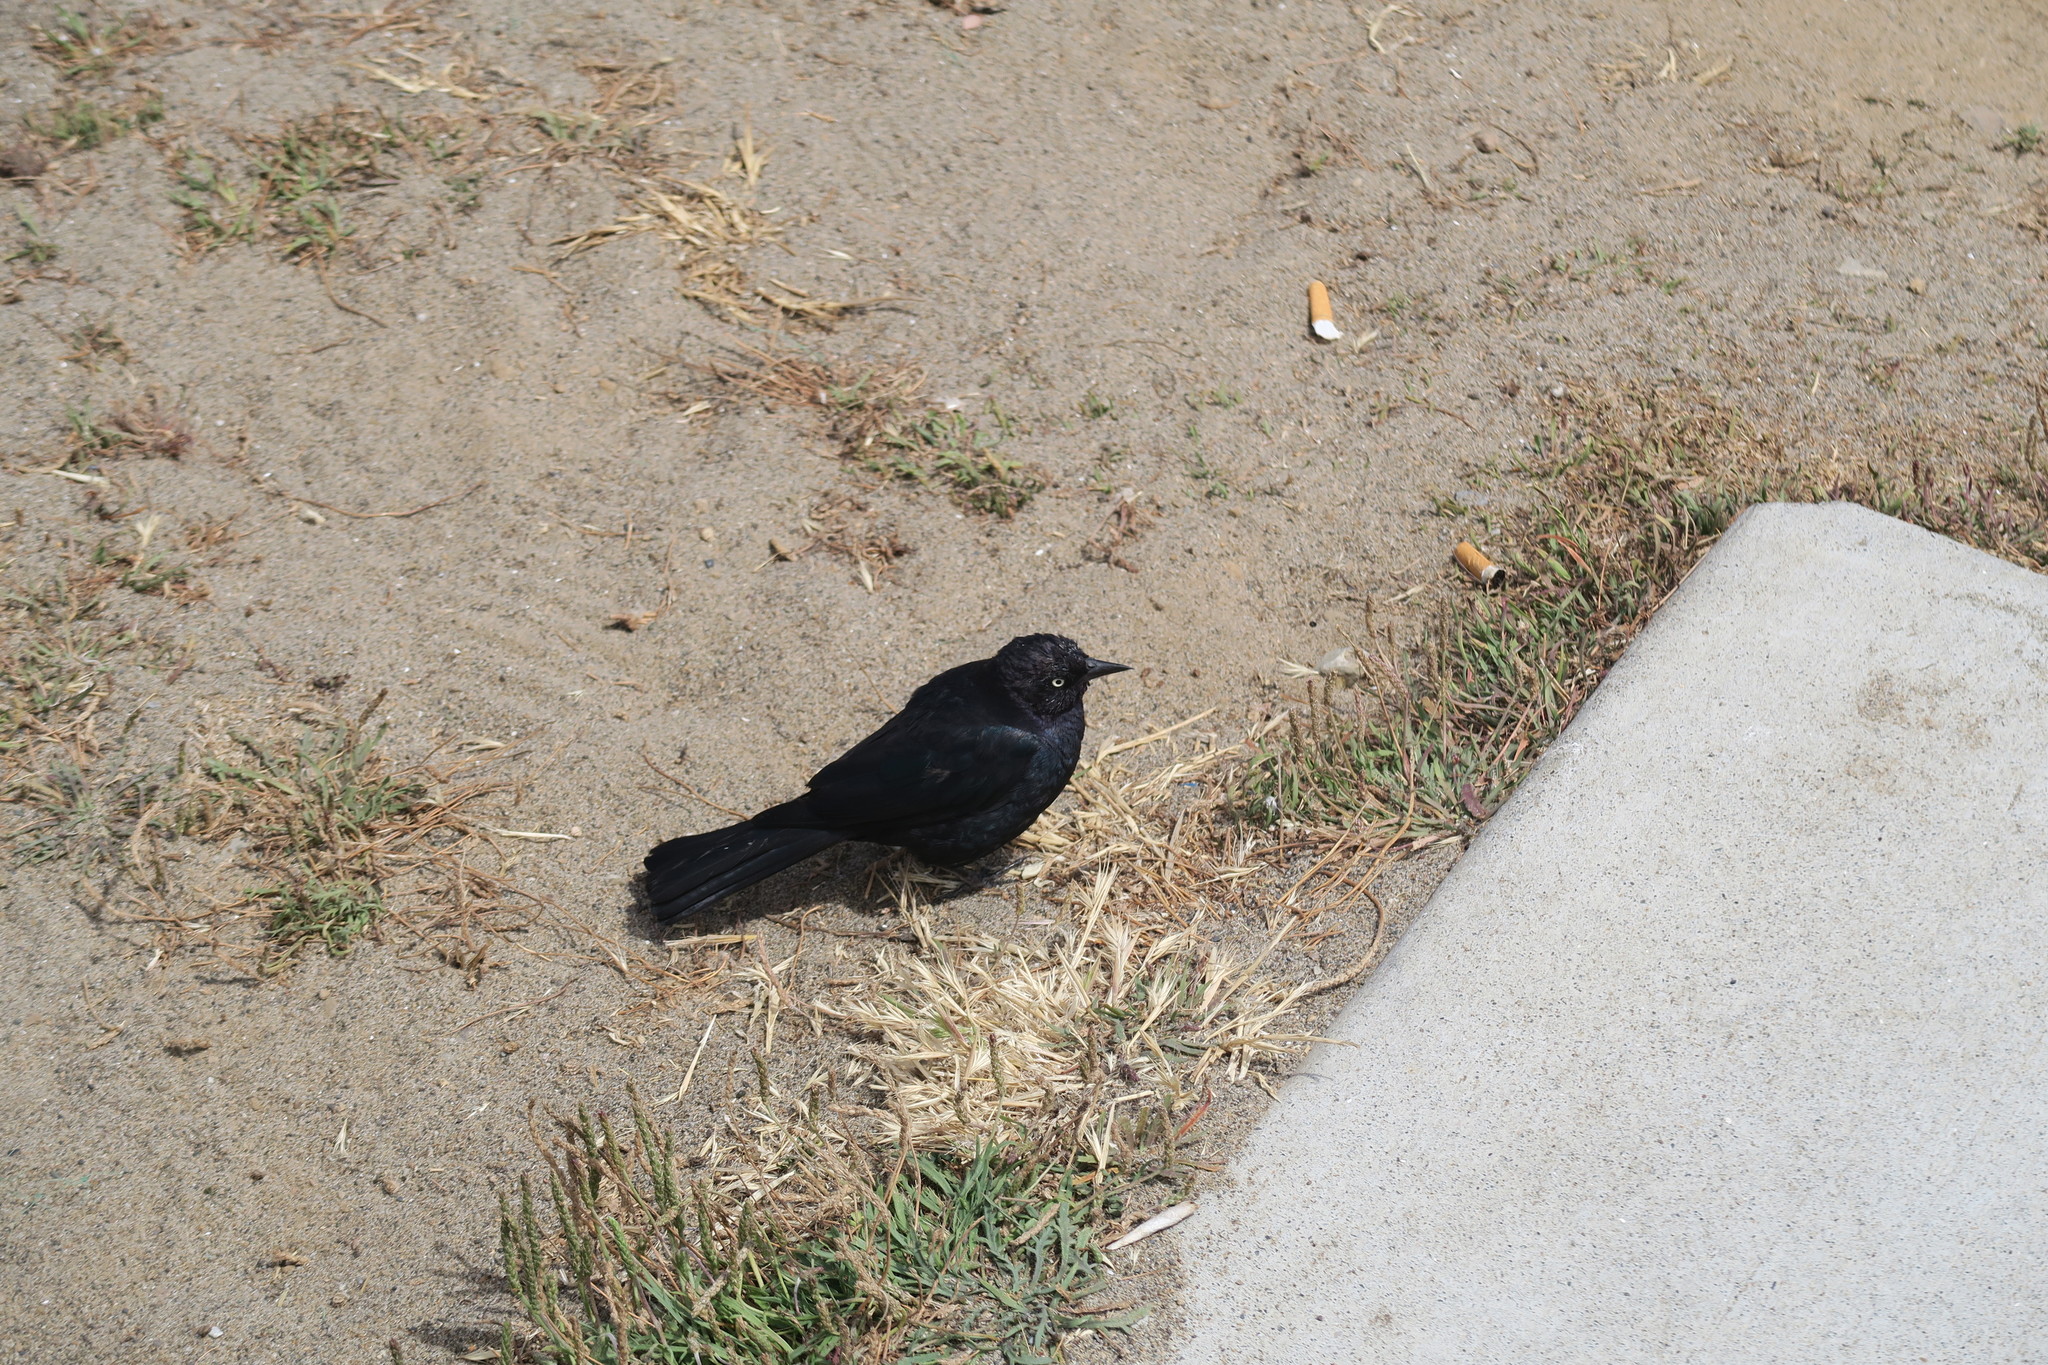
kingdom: Animalia
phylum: Chordata
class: Aves
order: Passeriformes
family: Icteridae
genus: Euphagus
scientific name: Euphagus cyanocephalus
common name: Brewer's blackbird
